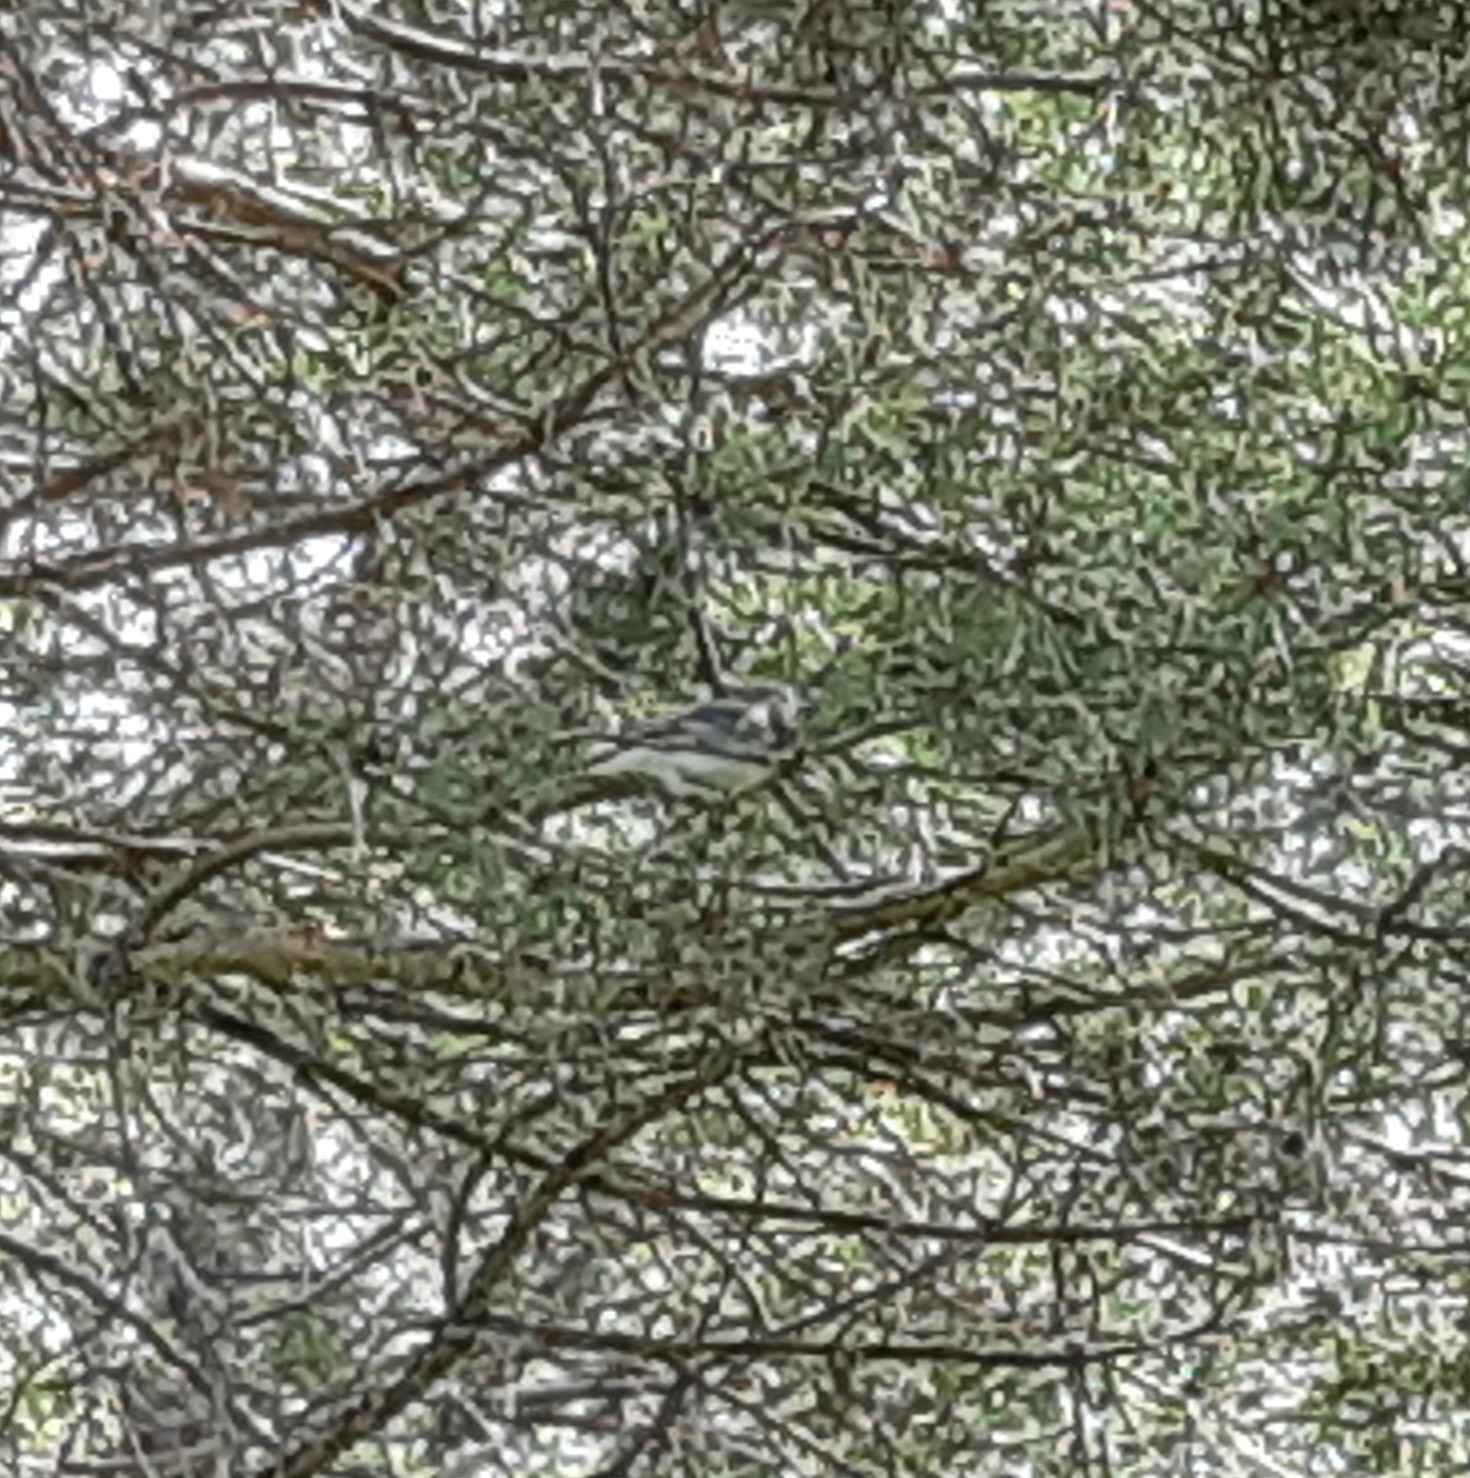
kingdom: Animalia
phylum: Chordata
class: Aves
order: Passeriformes
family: Motacillidae
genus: Motacilla
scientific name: Motacilla alba
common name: White wagtail
